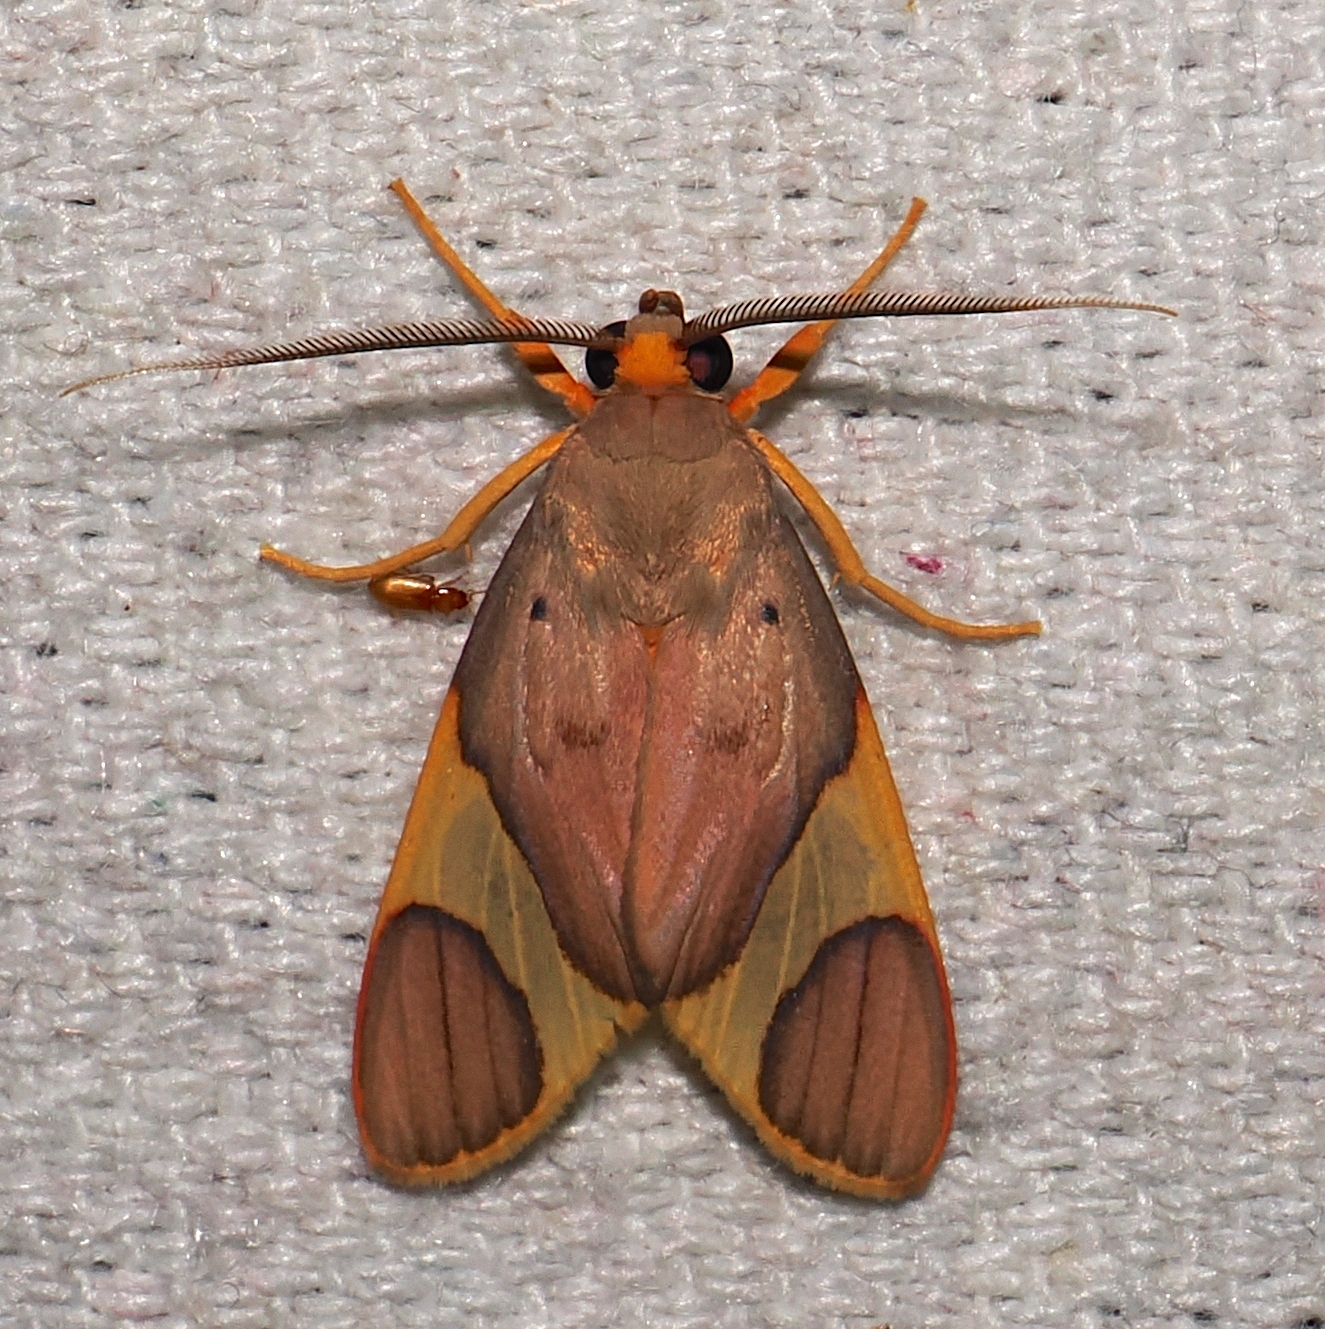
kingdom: Animalia
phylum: Arthropoda
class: Insecta
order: Lepidoptera
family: Erebidae
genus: Trichromia
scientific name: Trichromia cotes
